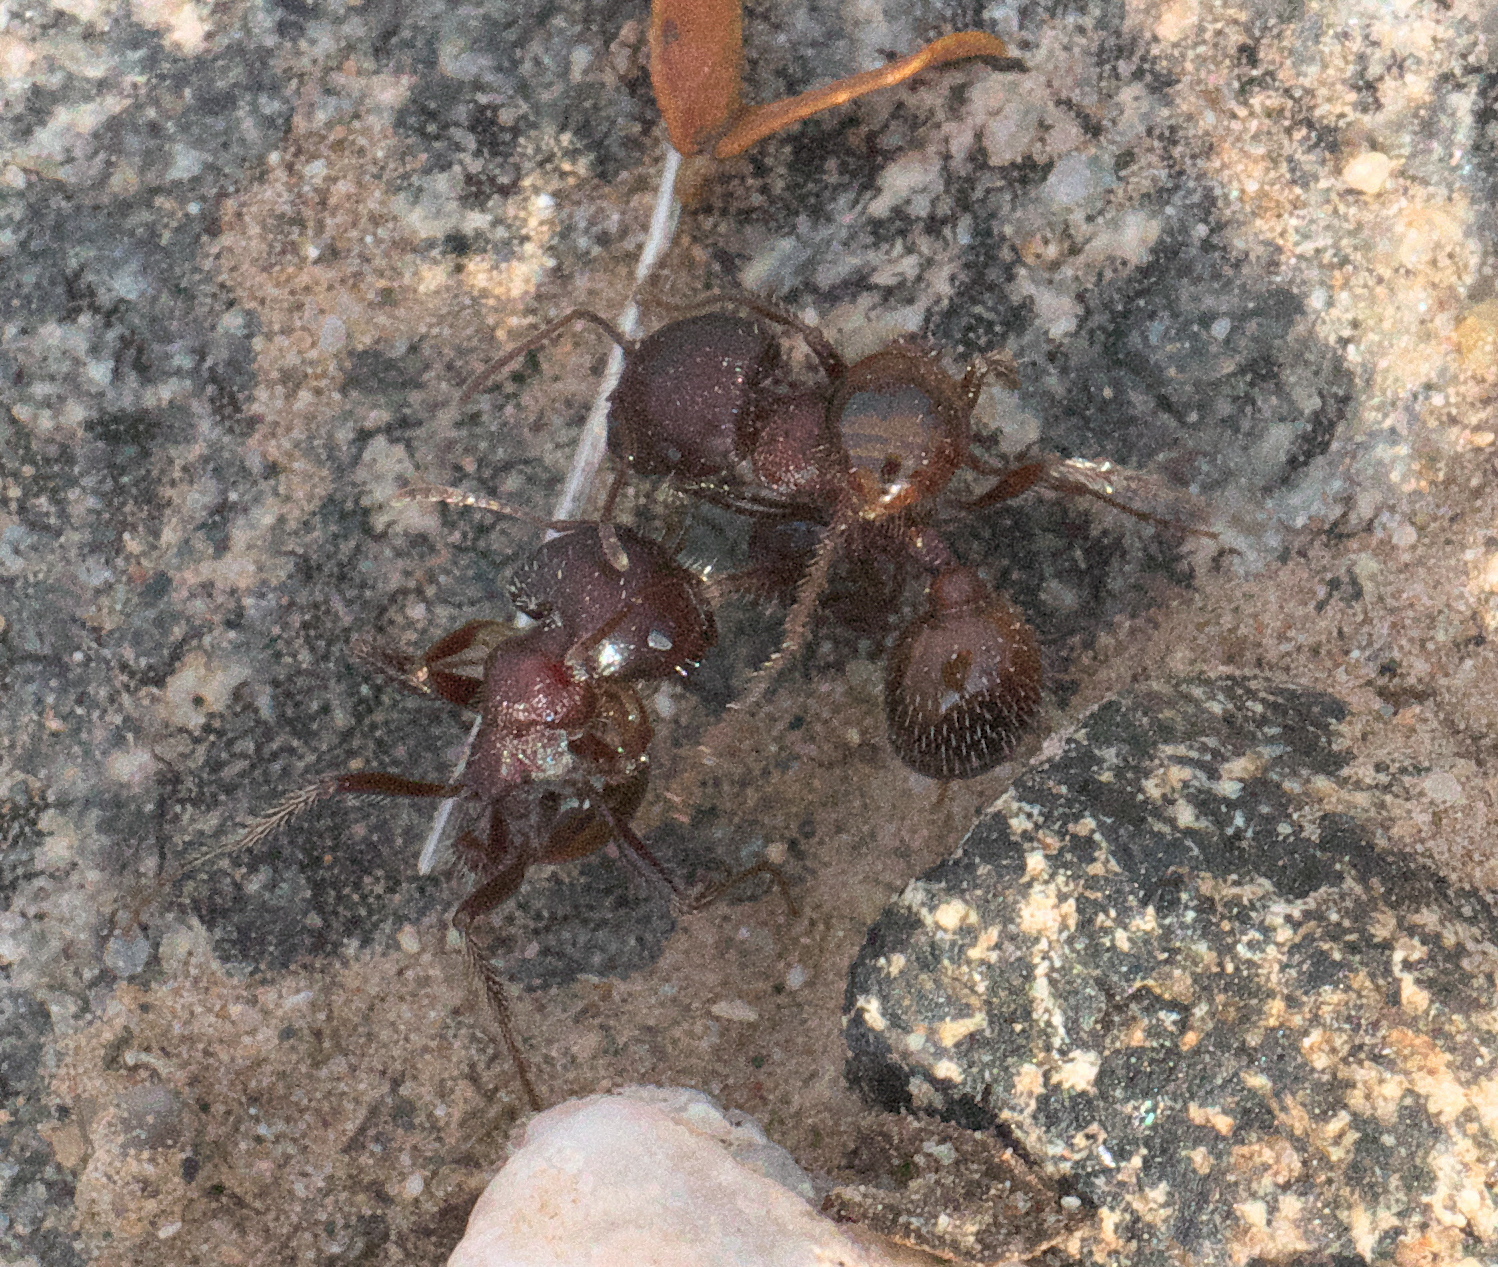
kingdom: Animalia
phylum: Arthropoda
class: Insecta
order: Hymenoptera
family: Formicidae
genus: Pogonomyrmex
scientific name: Pogonomyrmex rugosus
